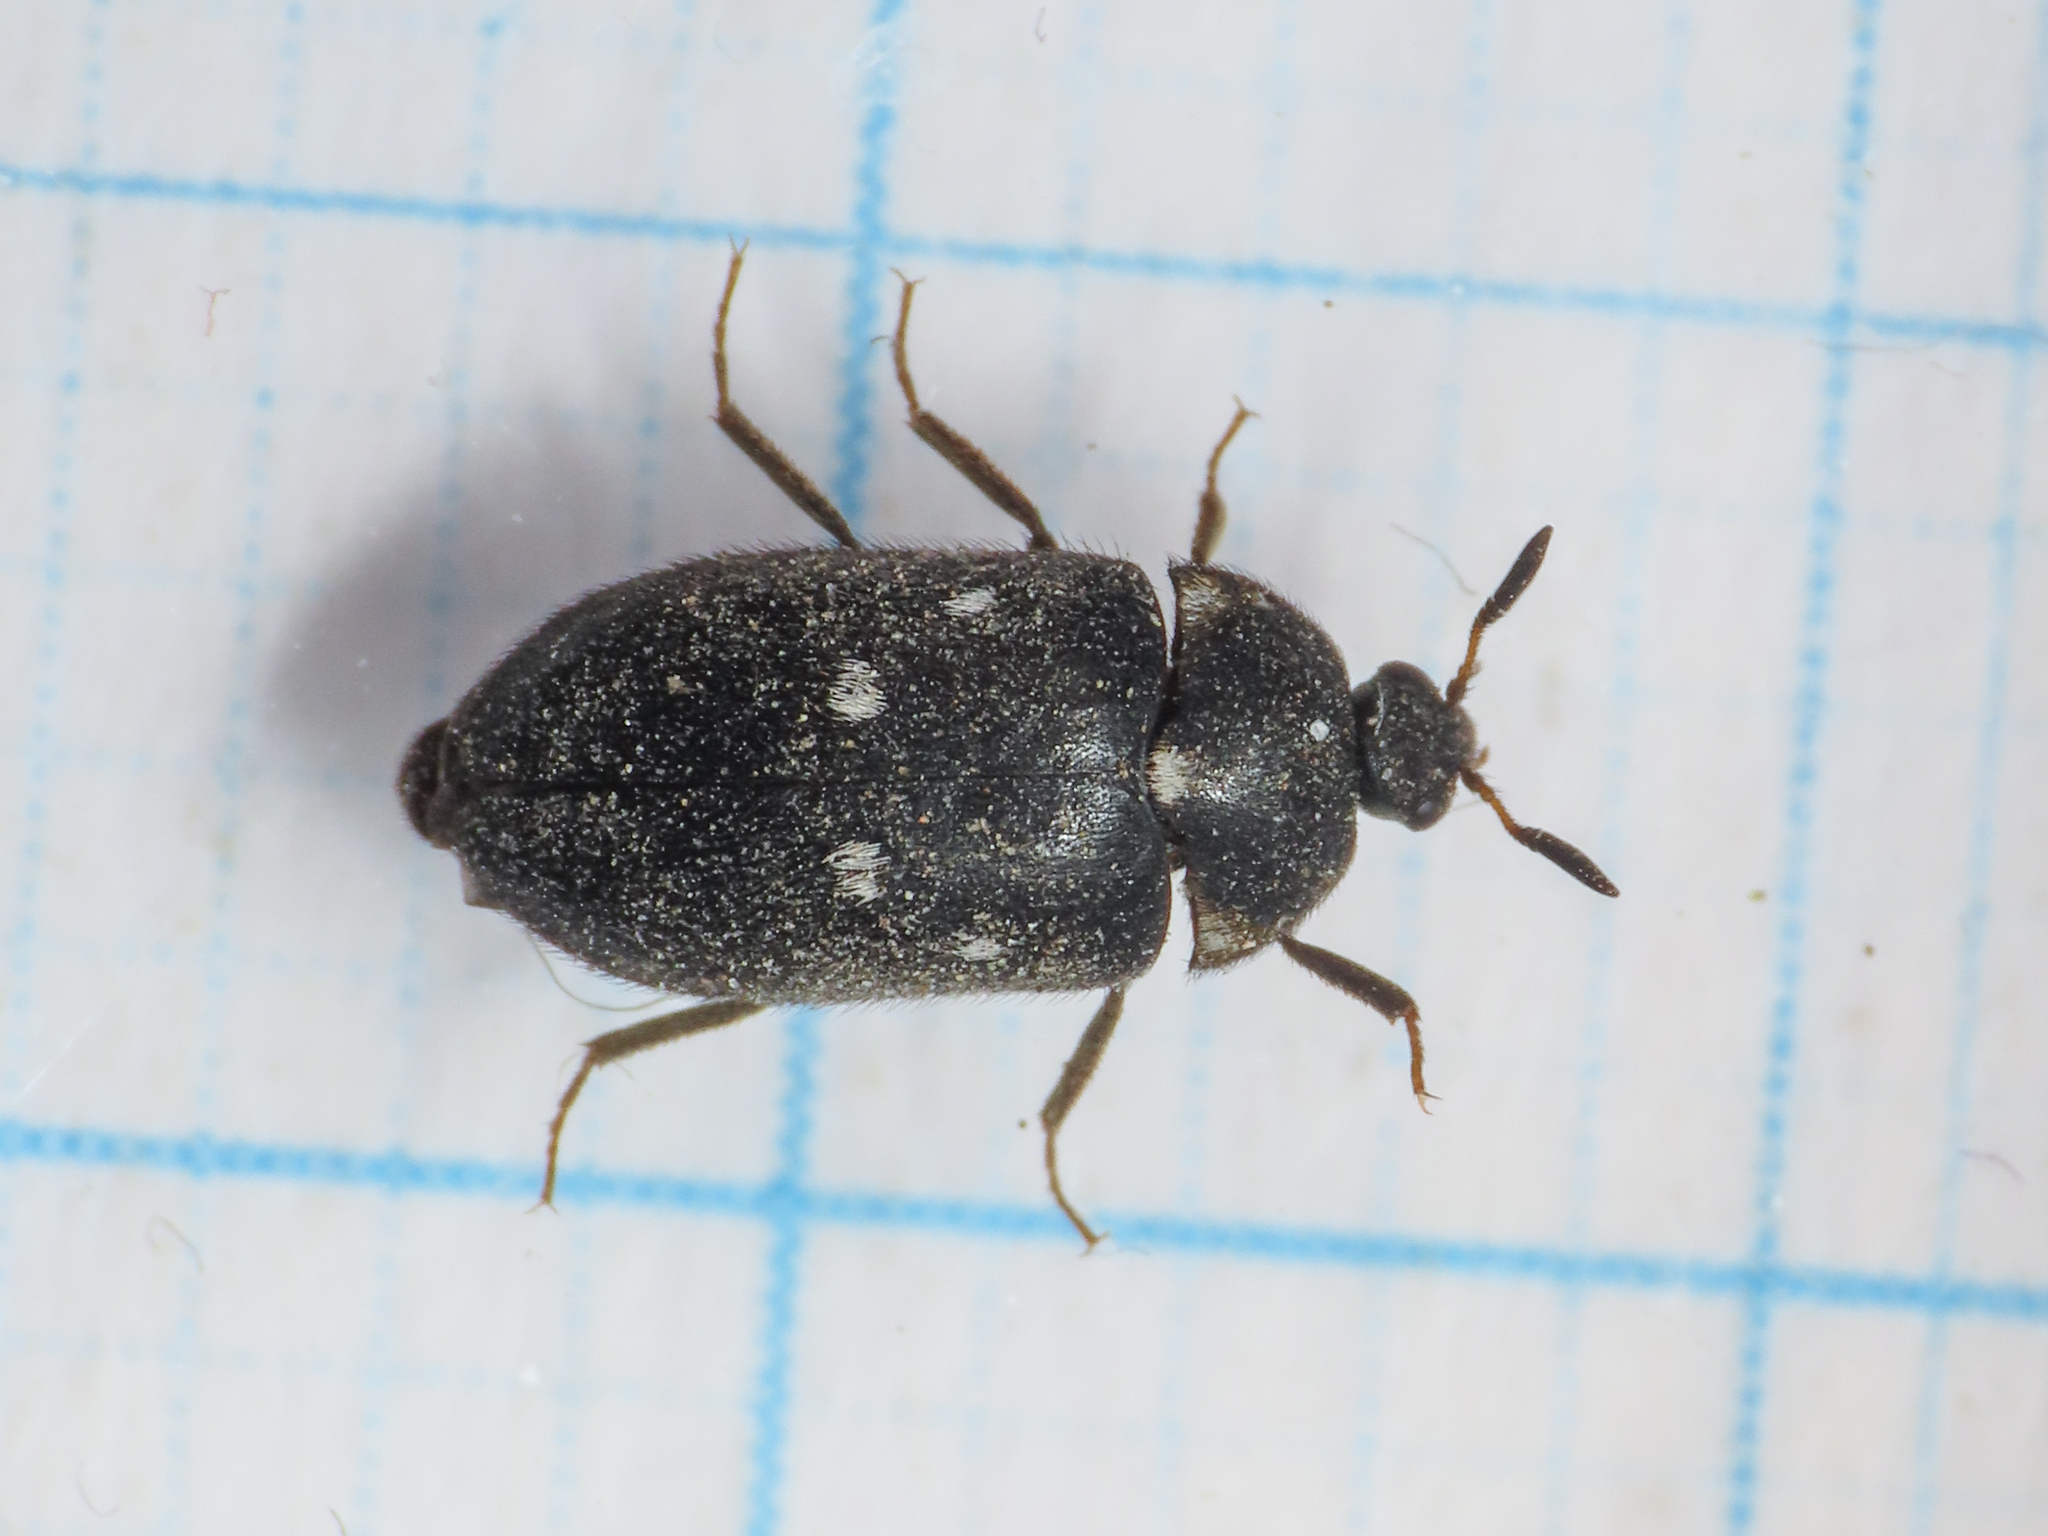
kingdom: Animalia
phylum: Arthropoda
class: Insecta
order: Coleoptera
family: Dermestidae
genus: Attagenus
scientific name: Attagenus pellio
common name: Two-spotted carpet beetle
